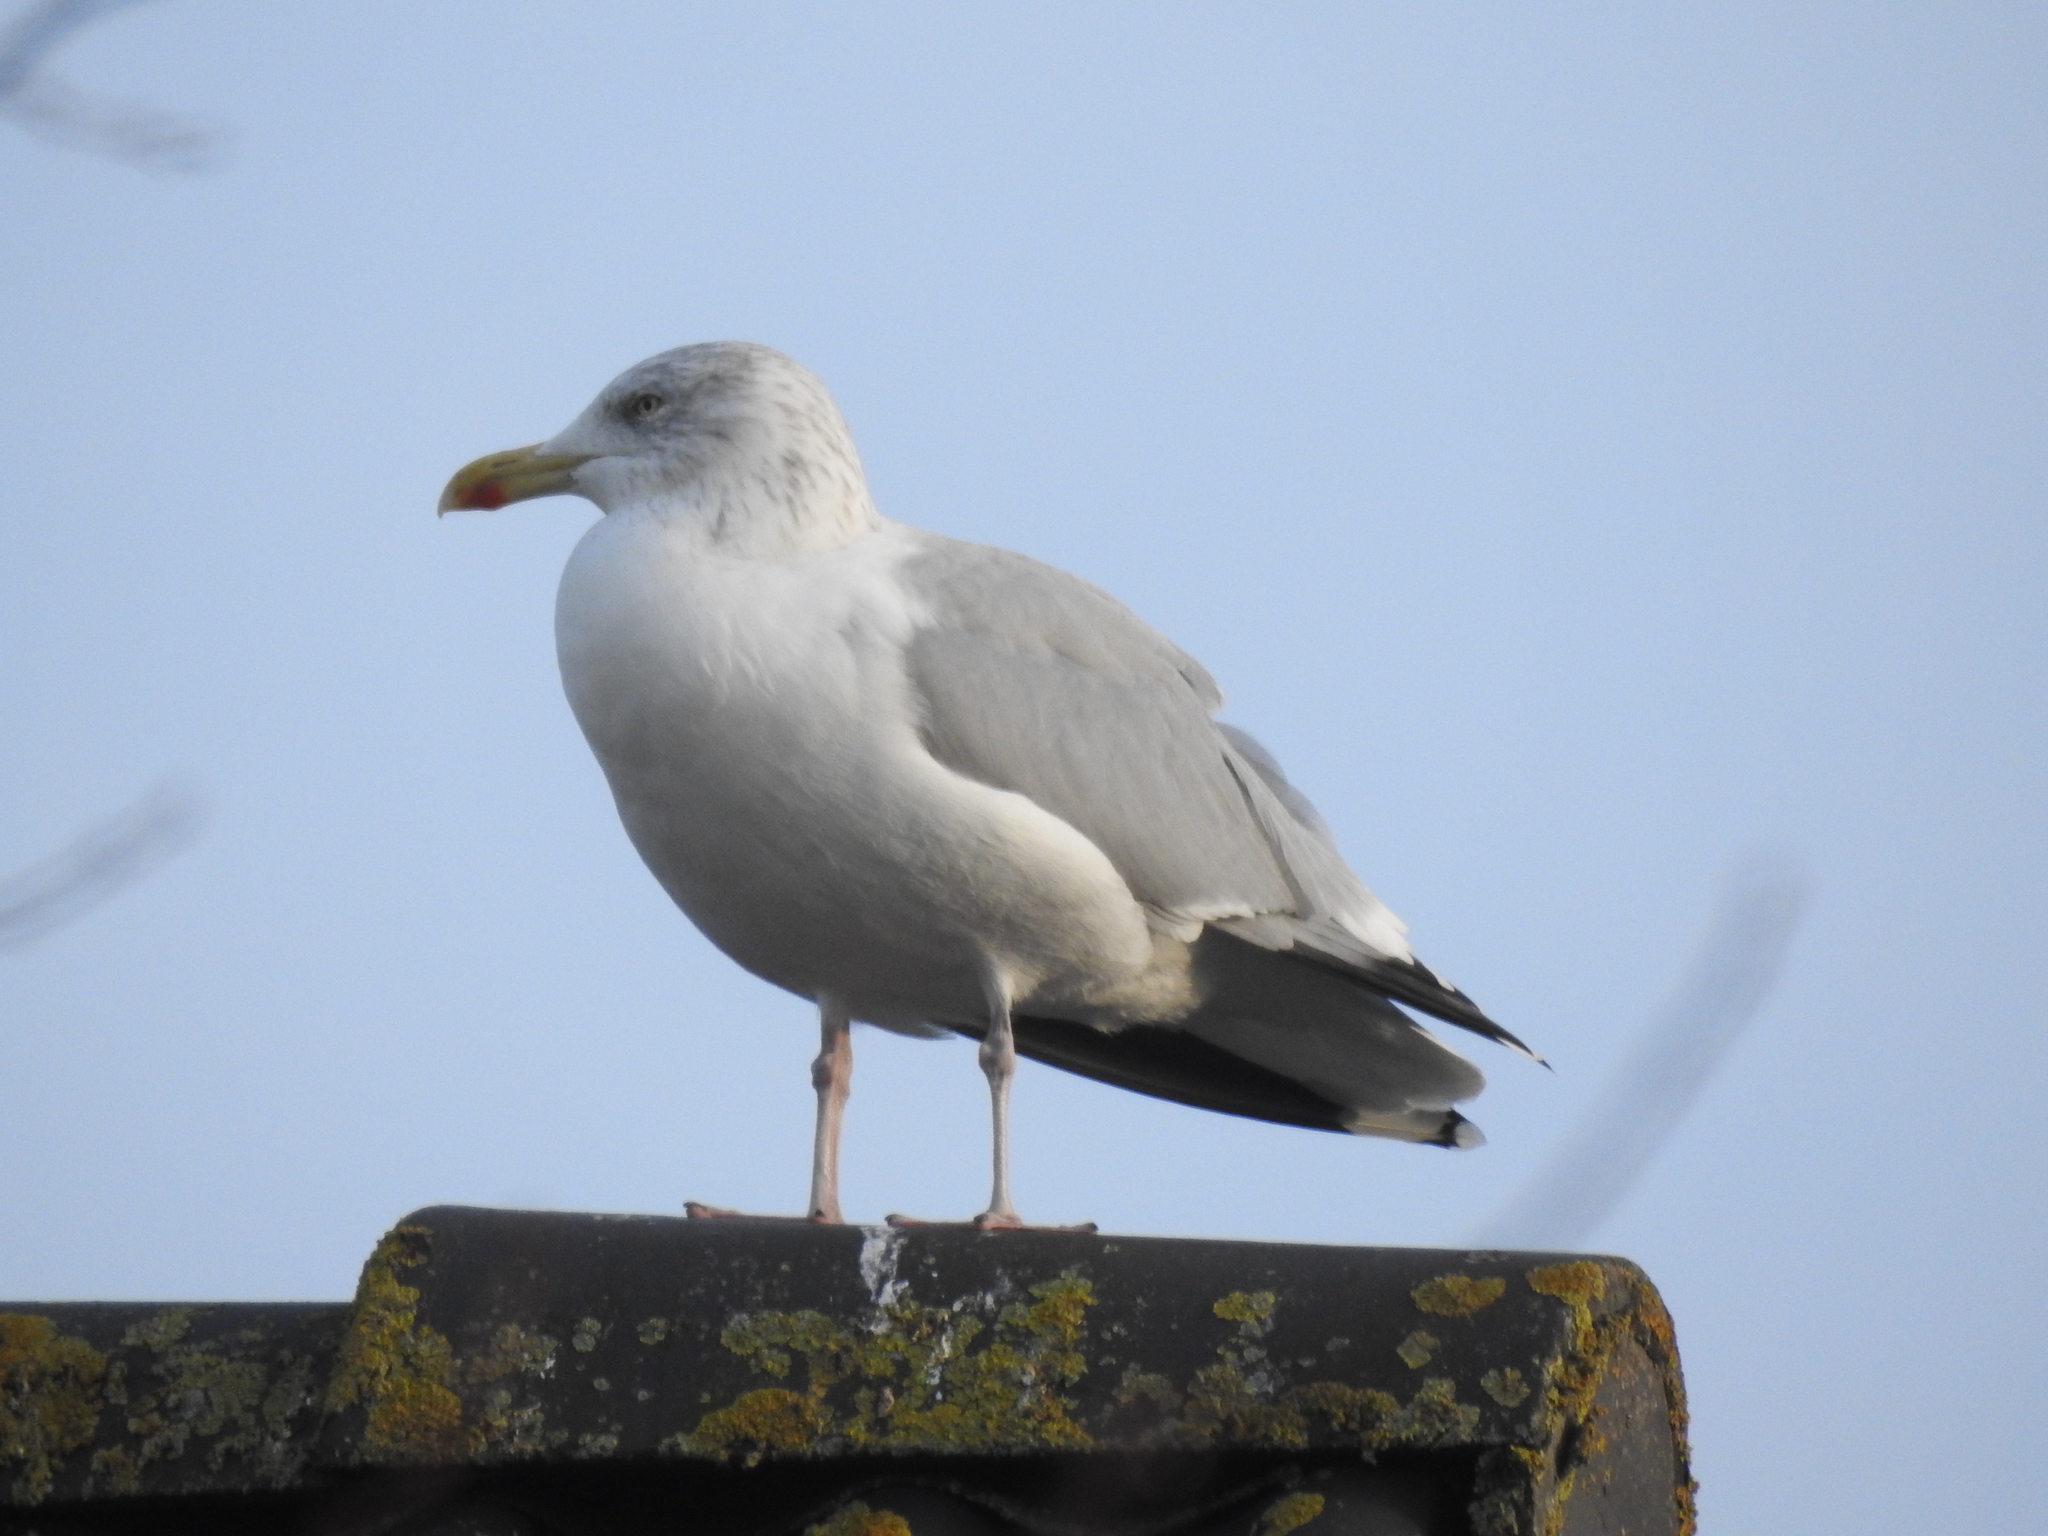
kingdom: Animalia
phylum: Chordata
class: Aves
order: Charadriiformes
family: Laridae
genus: Larus
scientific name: Larus argentatus
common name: Herring gull
